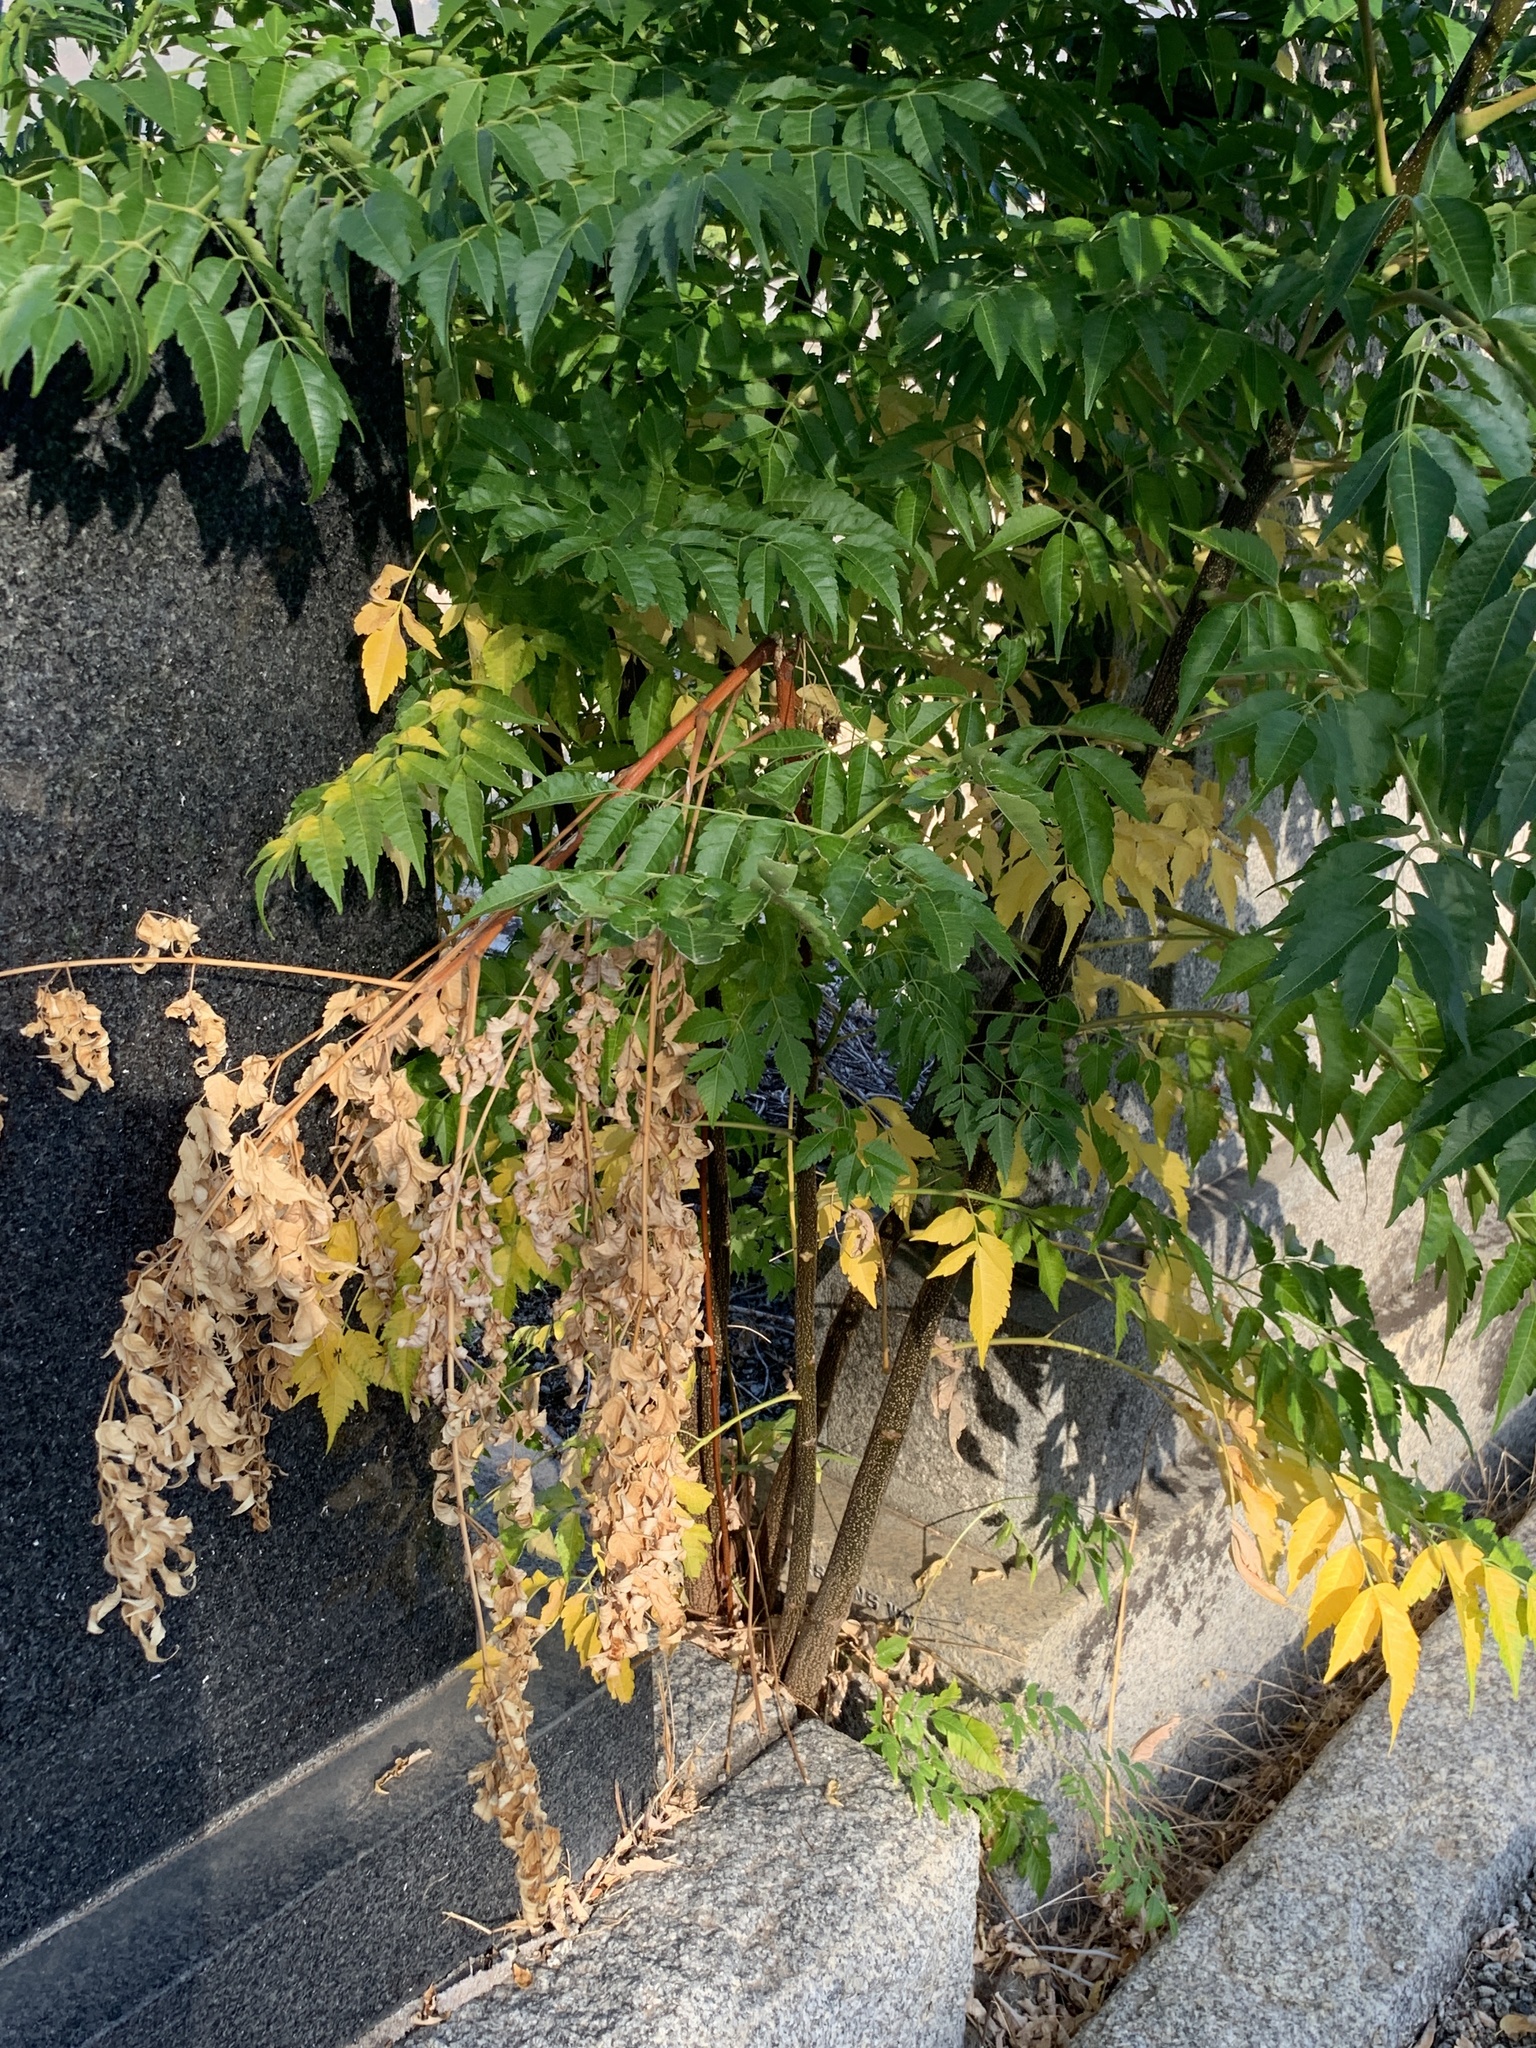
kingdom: Plantae
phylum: Tracheophyta
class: Magnoliopsida
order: Sapindales
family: Meliaceae
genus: Melia
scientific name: Melia azedarach
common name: Chinaberrytree
